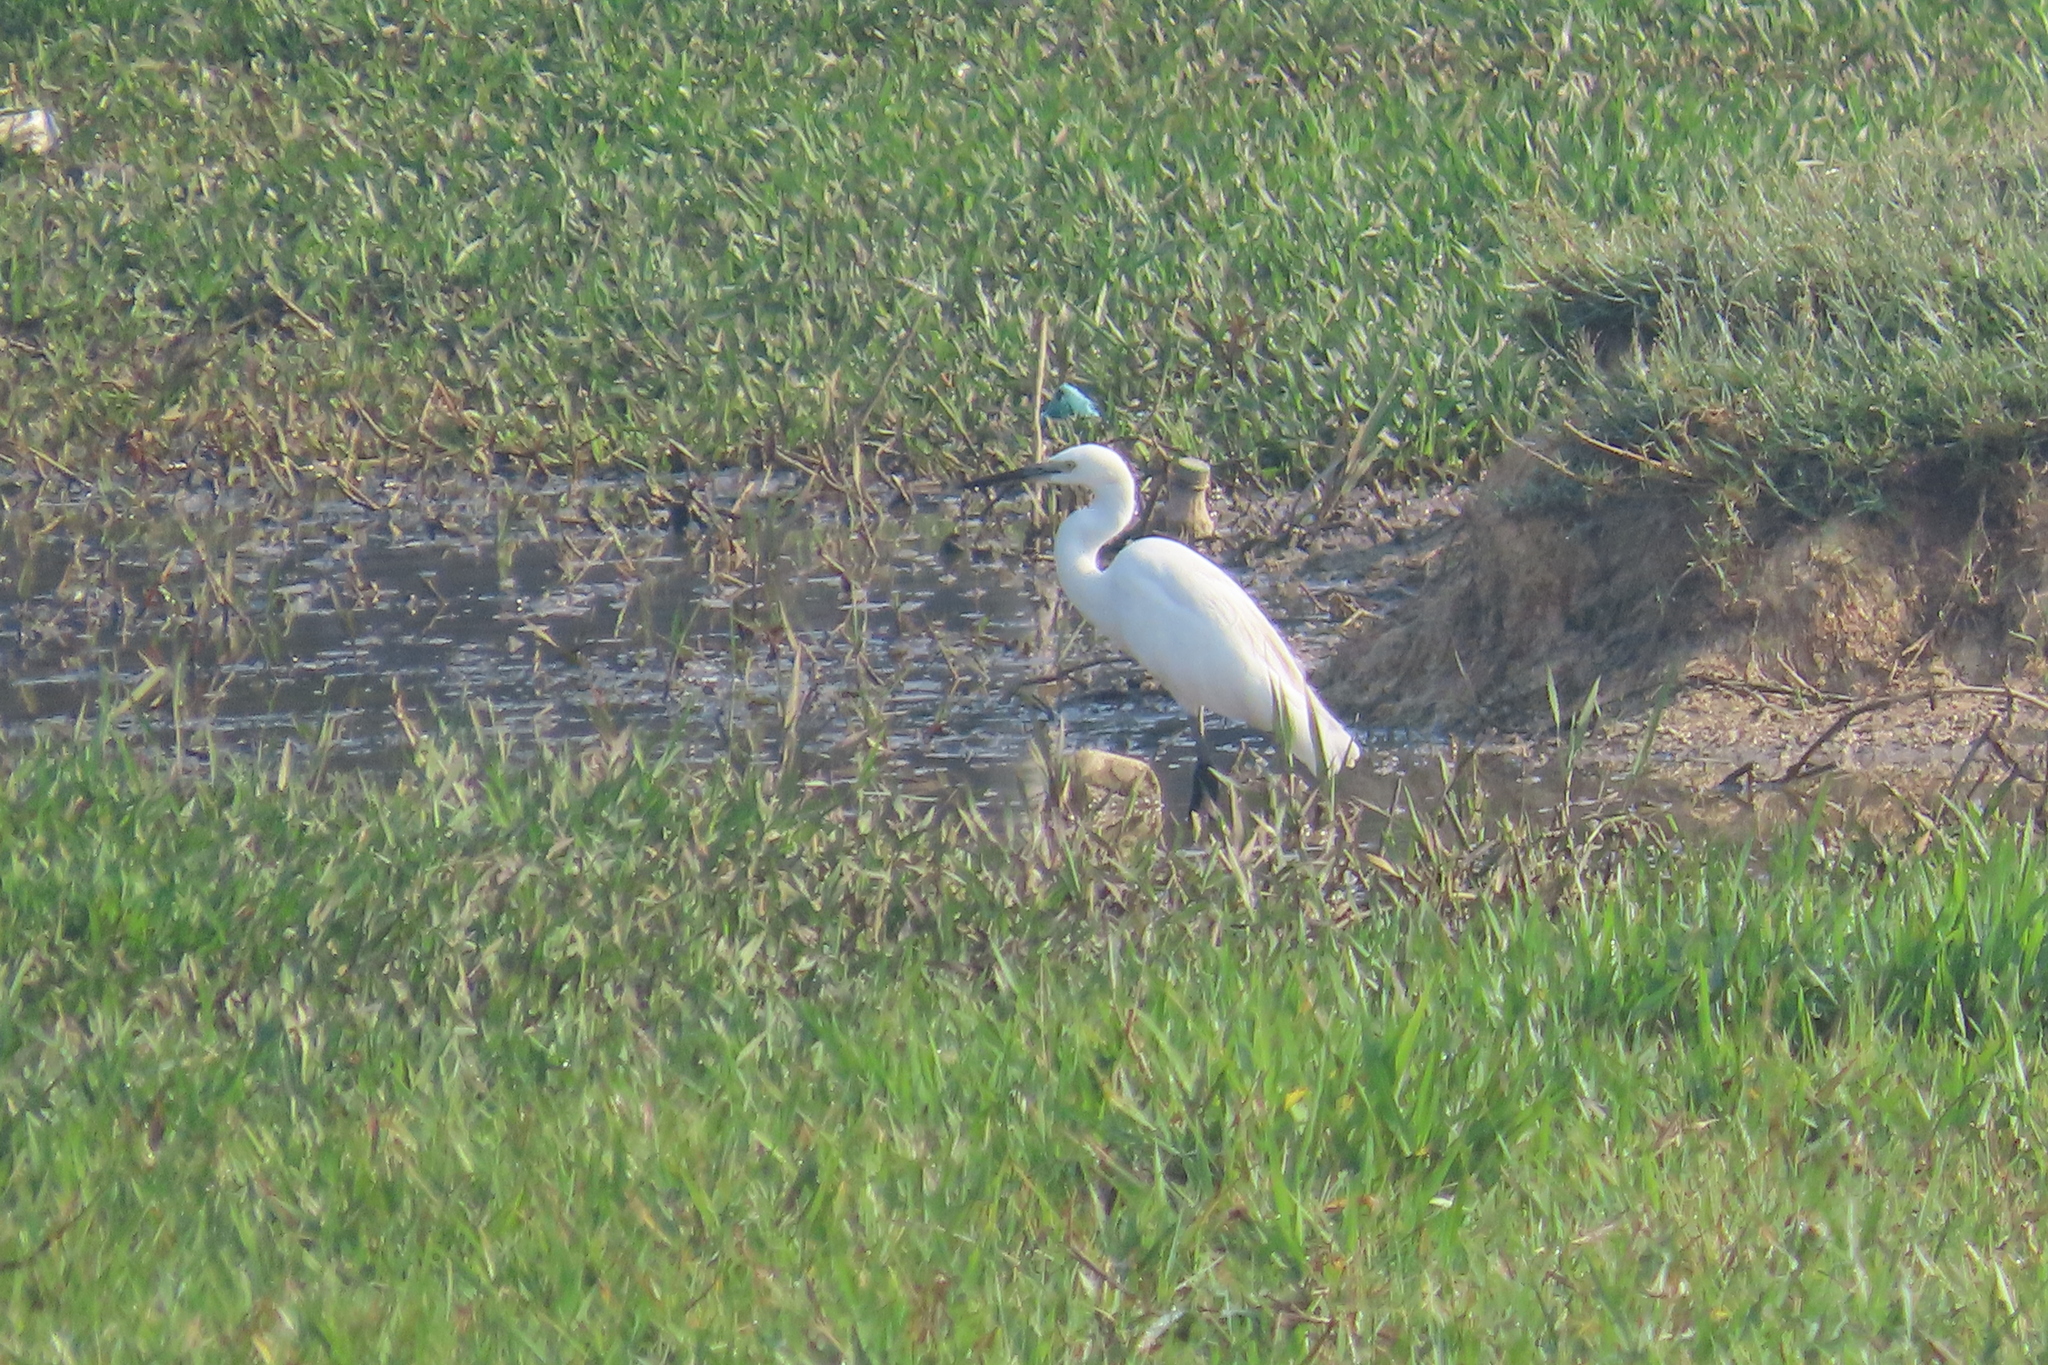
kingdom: Animalia
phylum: Chordata
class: Aves
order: Pelecaniformes
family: Ardeidae
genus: Egretta
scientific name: Egretta garzetta
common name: Little egret
